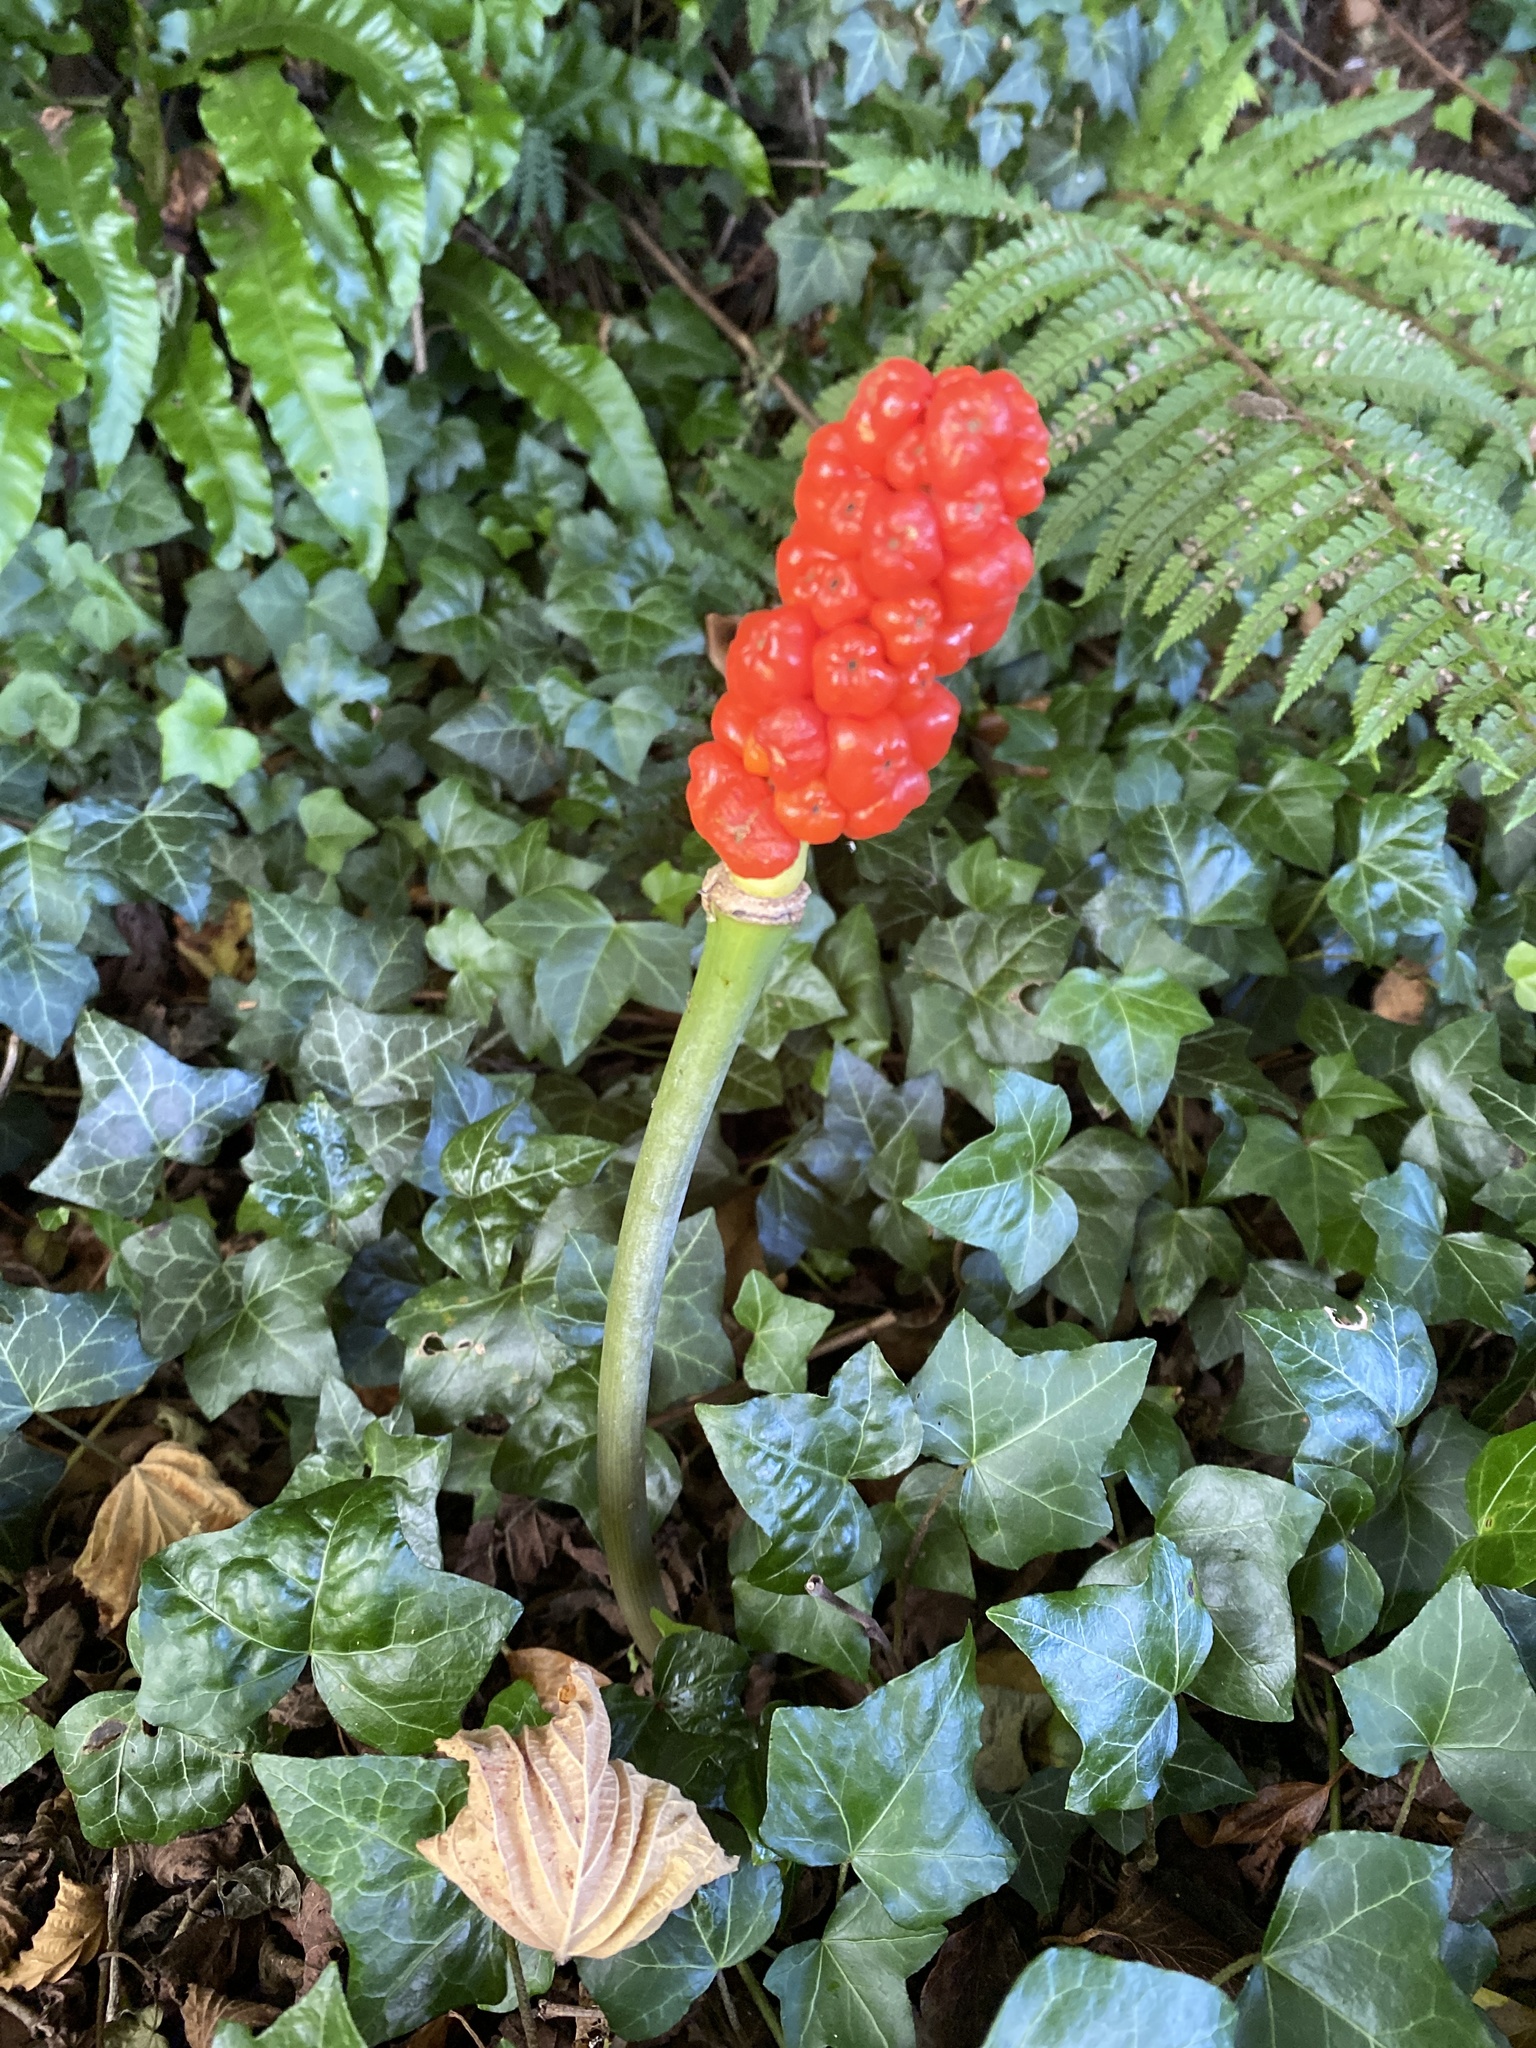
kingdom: Plantae
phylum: Tracheophyta
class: Liliopsida
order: Alismatales
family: Araceae
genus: Arum
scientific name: Arum maculatum
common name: Lords-and-ladies
